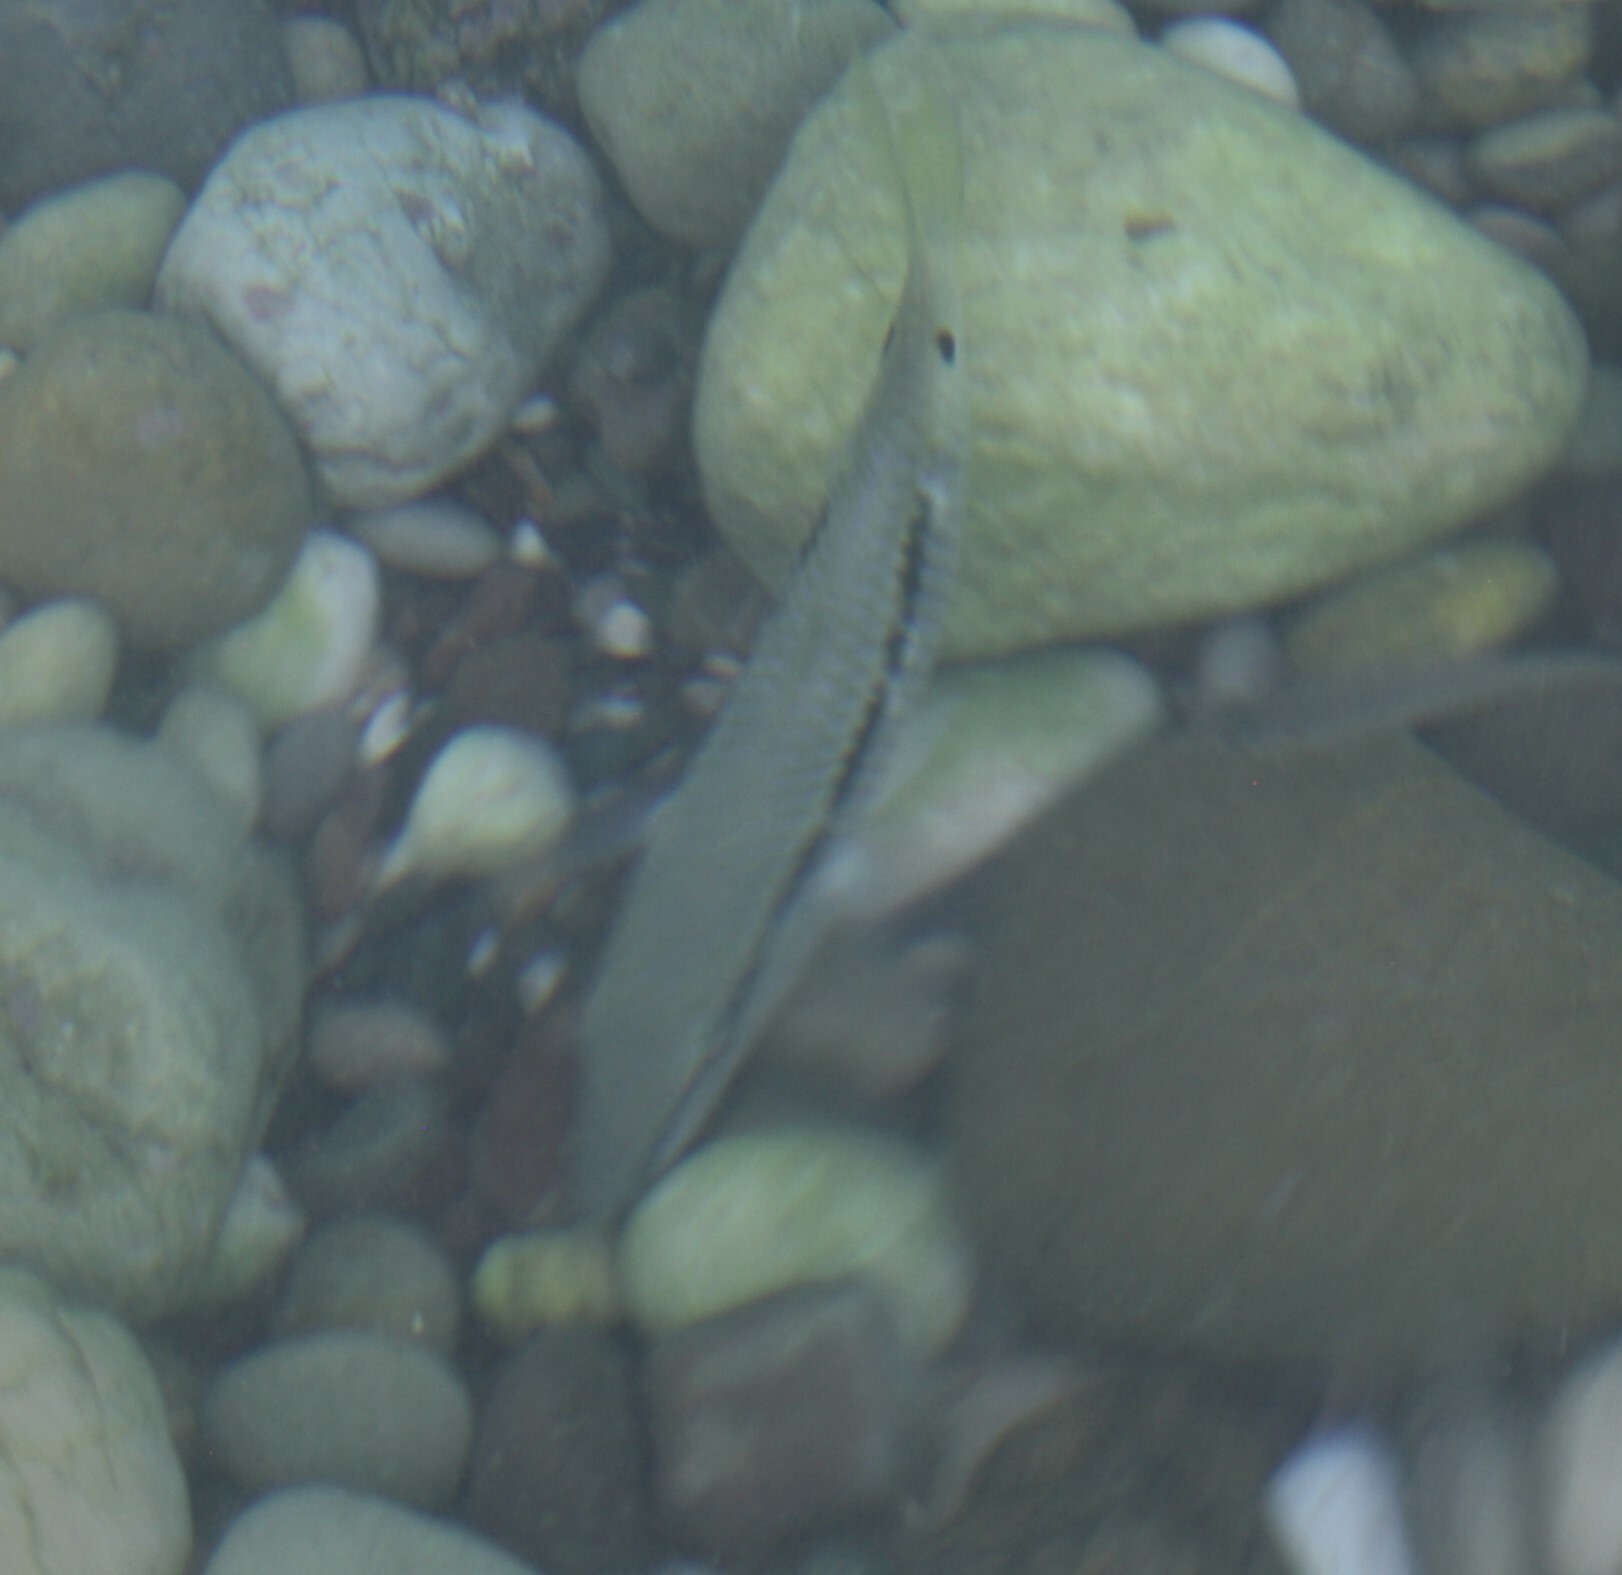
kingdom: Animalia
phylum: Chordata
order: Perciformes
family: Mullidae
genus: Parupeneus
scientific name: Parupeneus forsskali
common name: Red sea goatfish
